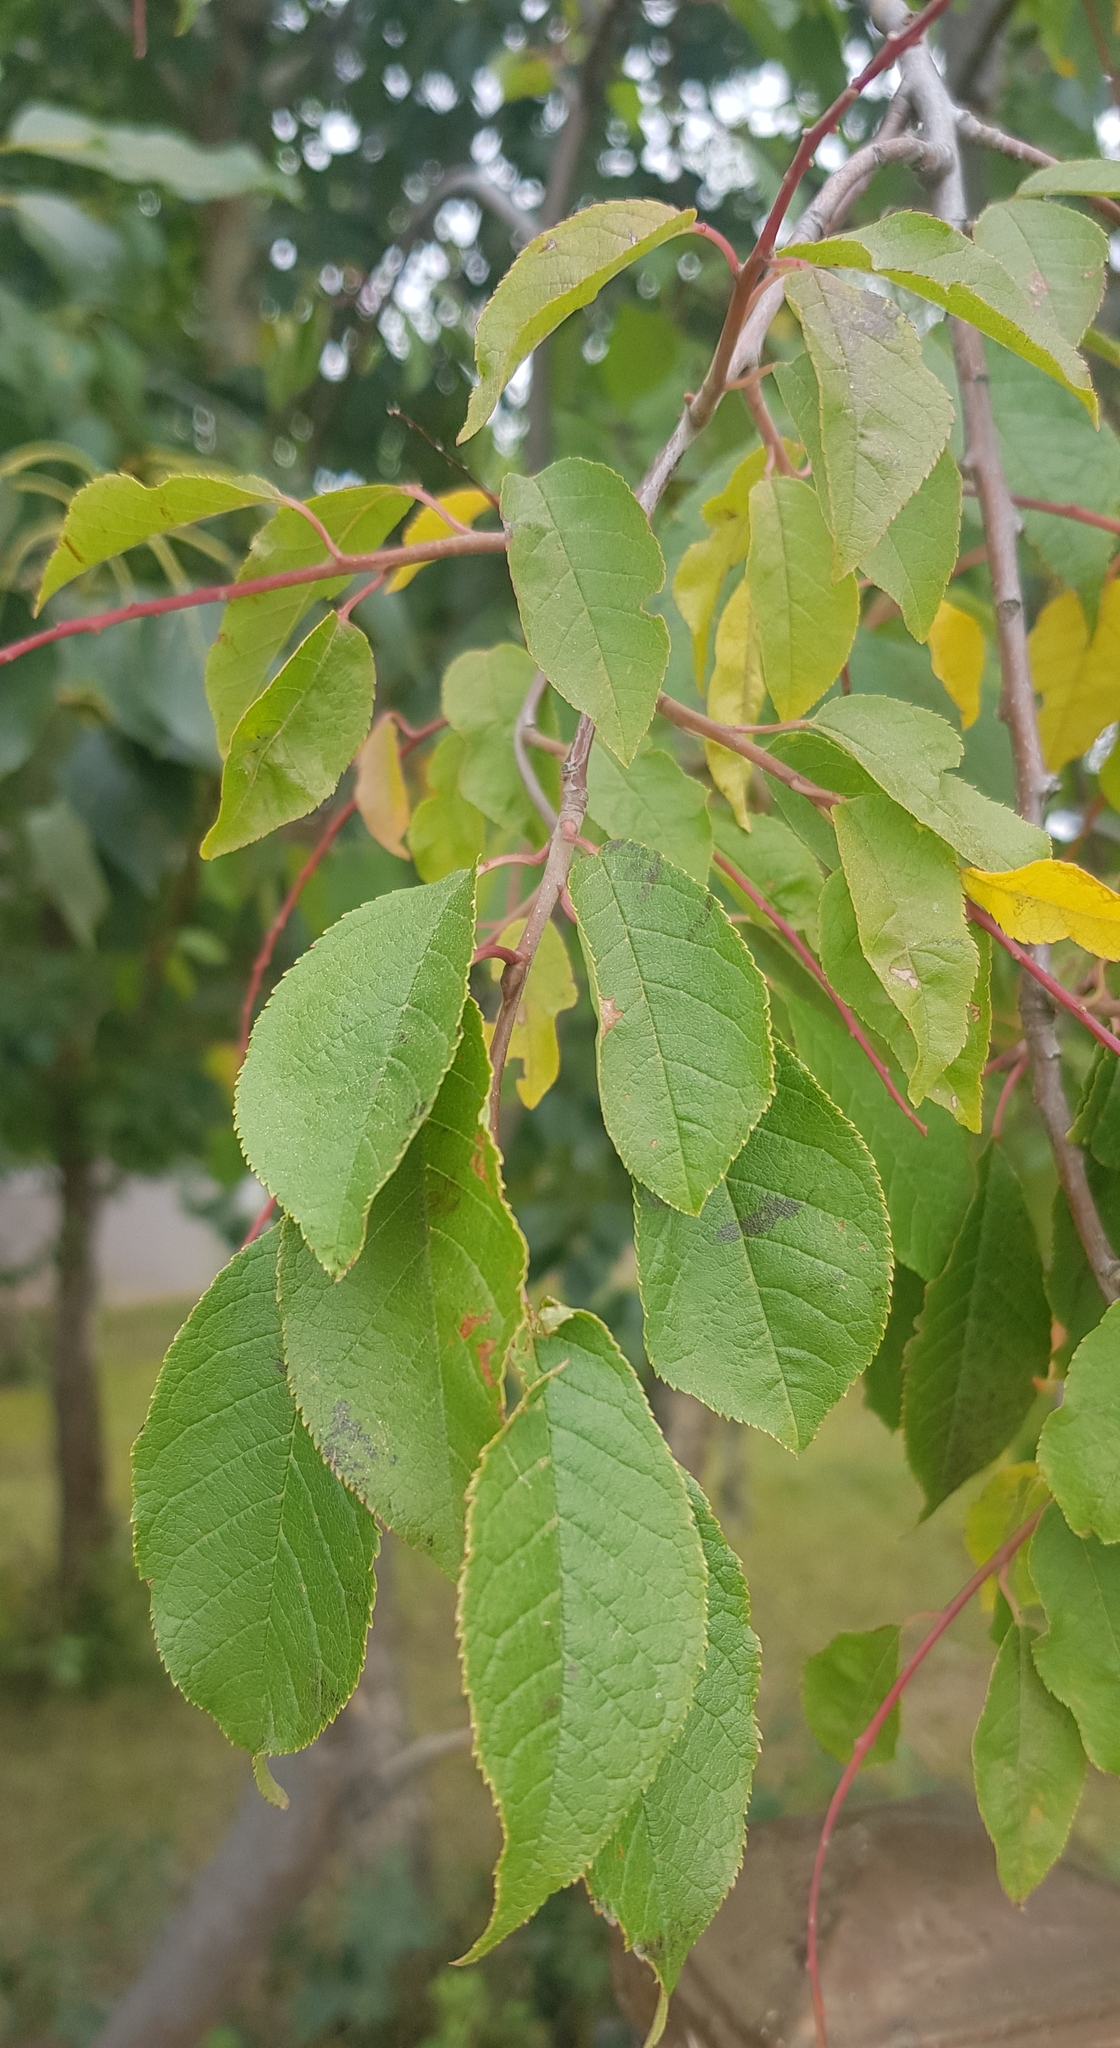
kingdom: Plantae
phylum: Tracheophyta
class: Magnoliopsida
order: Rosales
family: Rosaceae
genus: Prunus
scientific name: Prunus avium
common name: Sweet cherry
